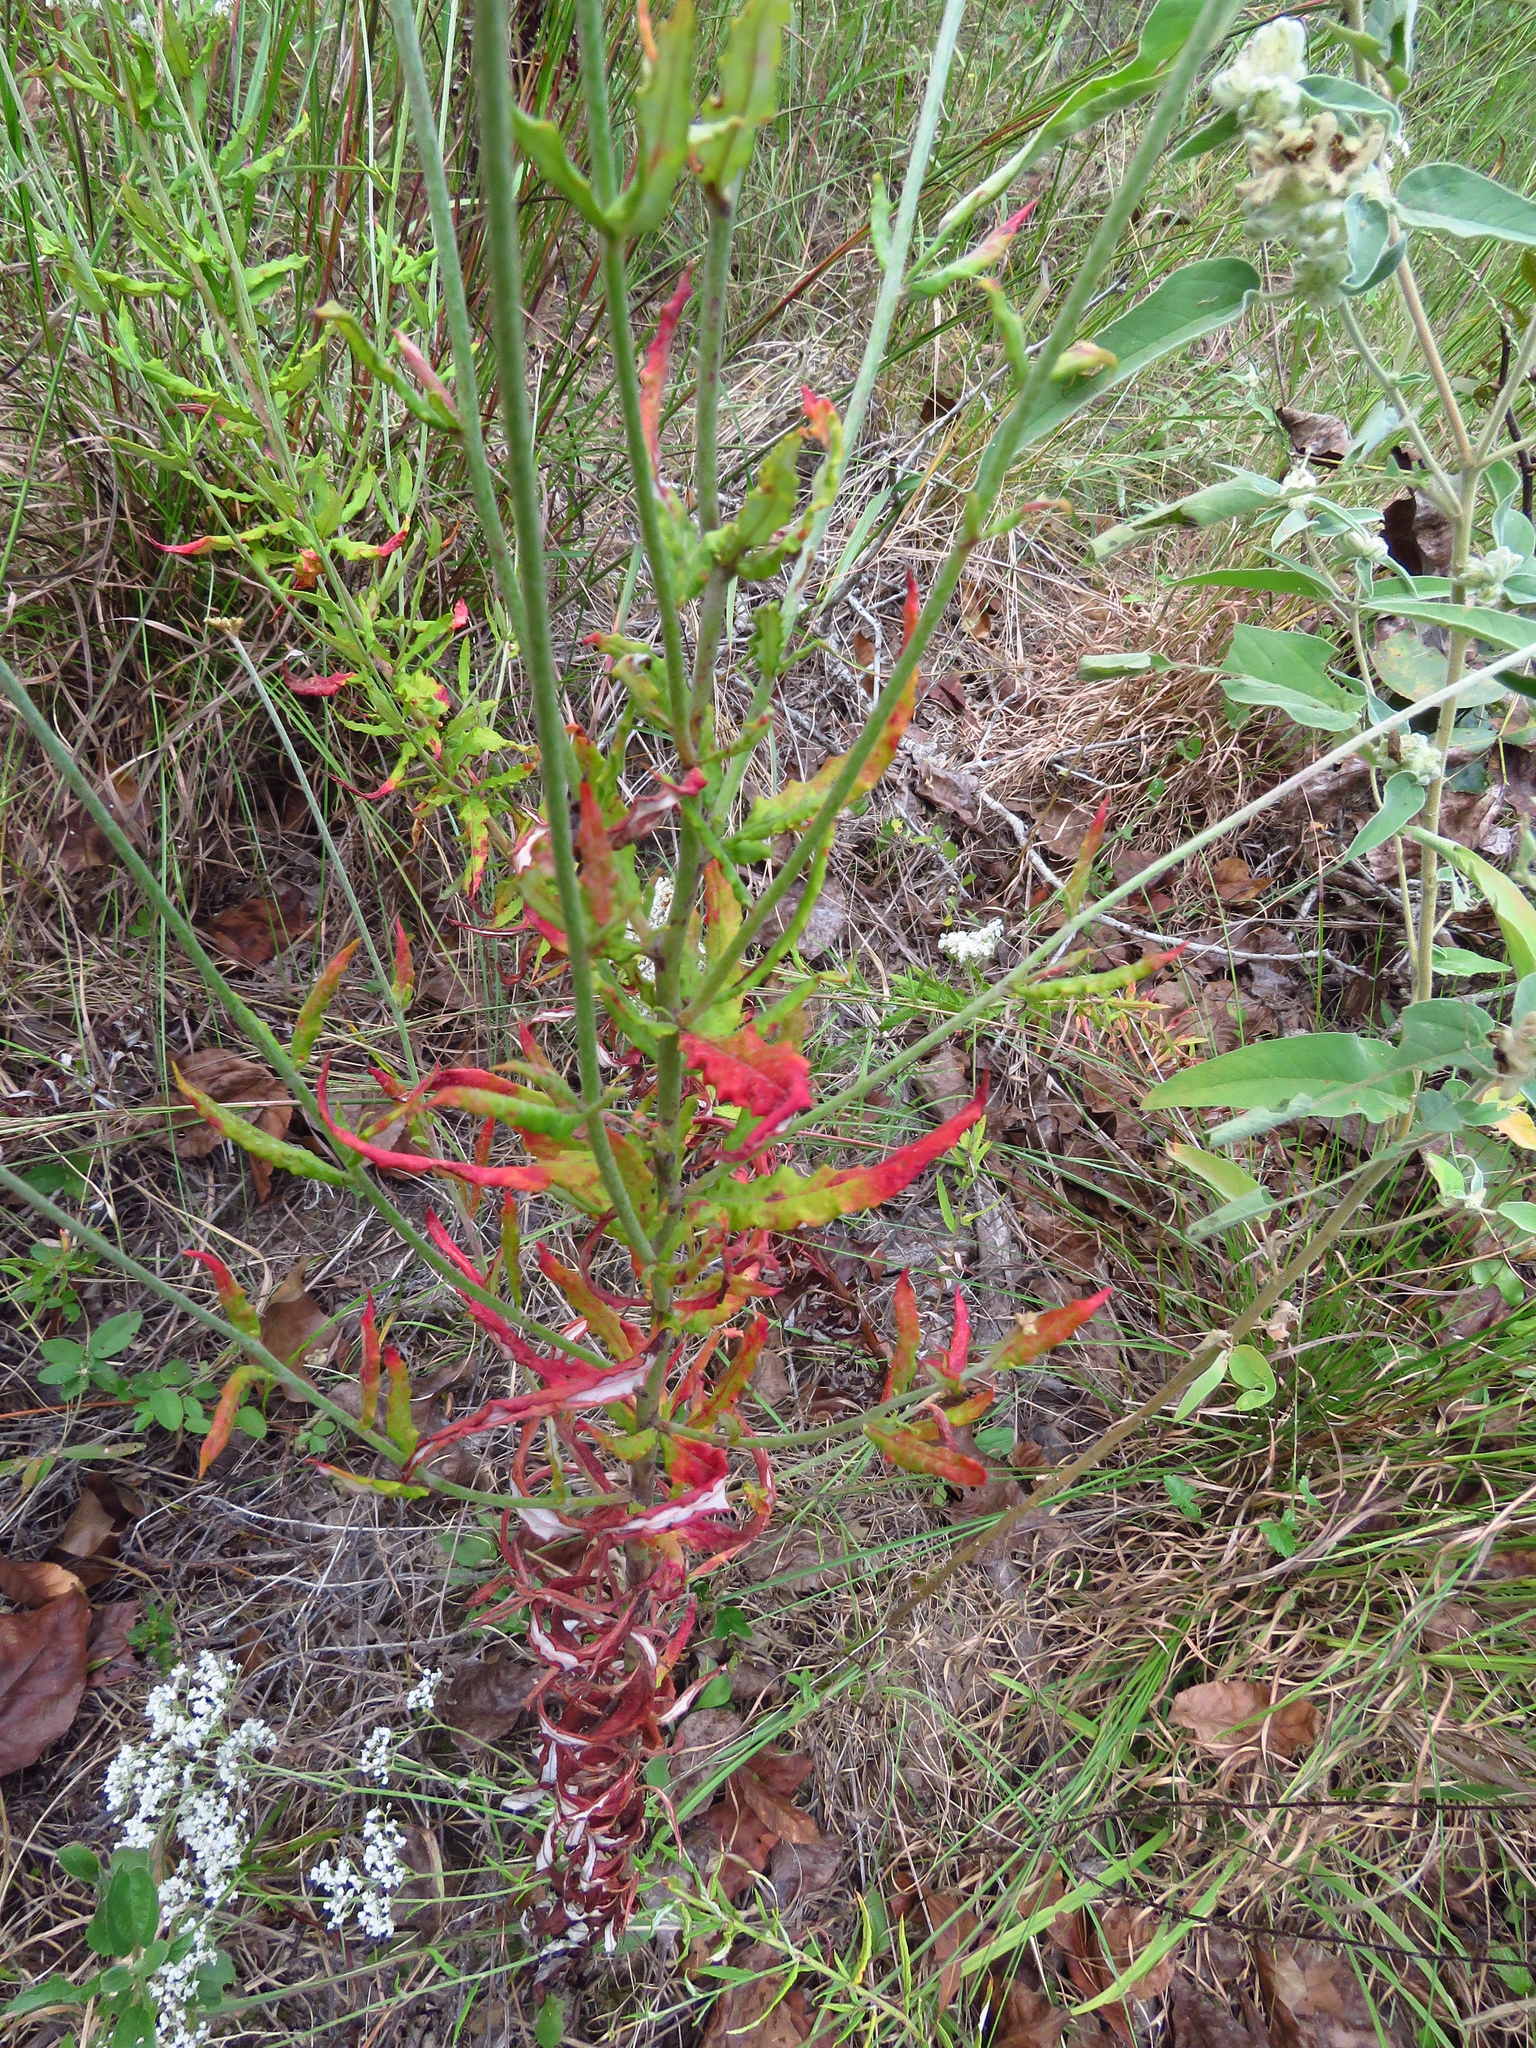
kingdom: Plantae
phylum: Tracheophyta
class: Magnoliopsida
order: Caryophyllales
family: Polygonaceae
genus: Eriogonum
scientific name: Eriogonum multiflorum
